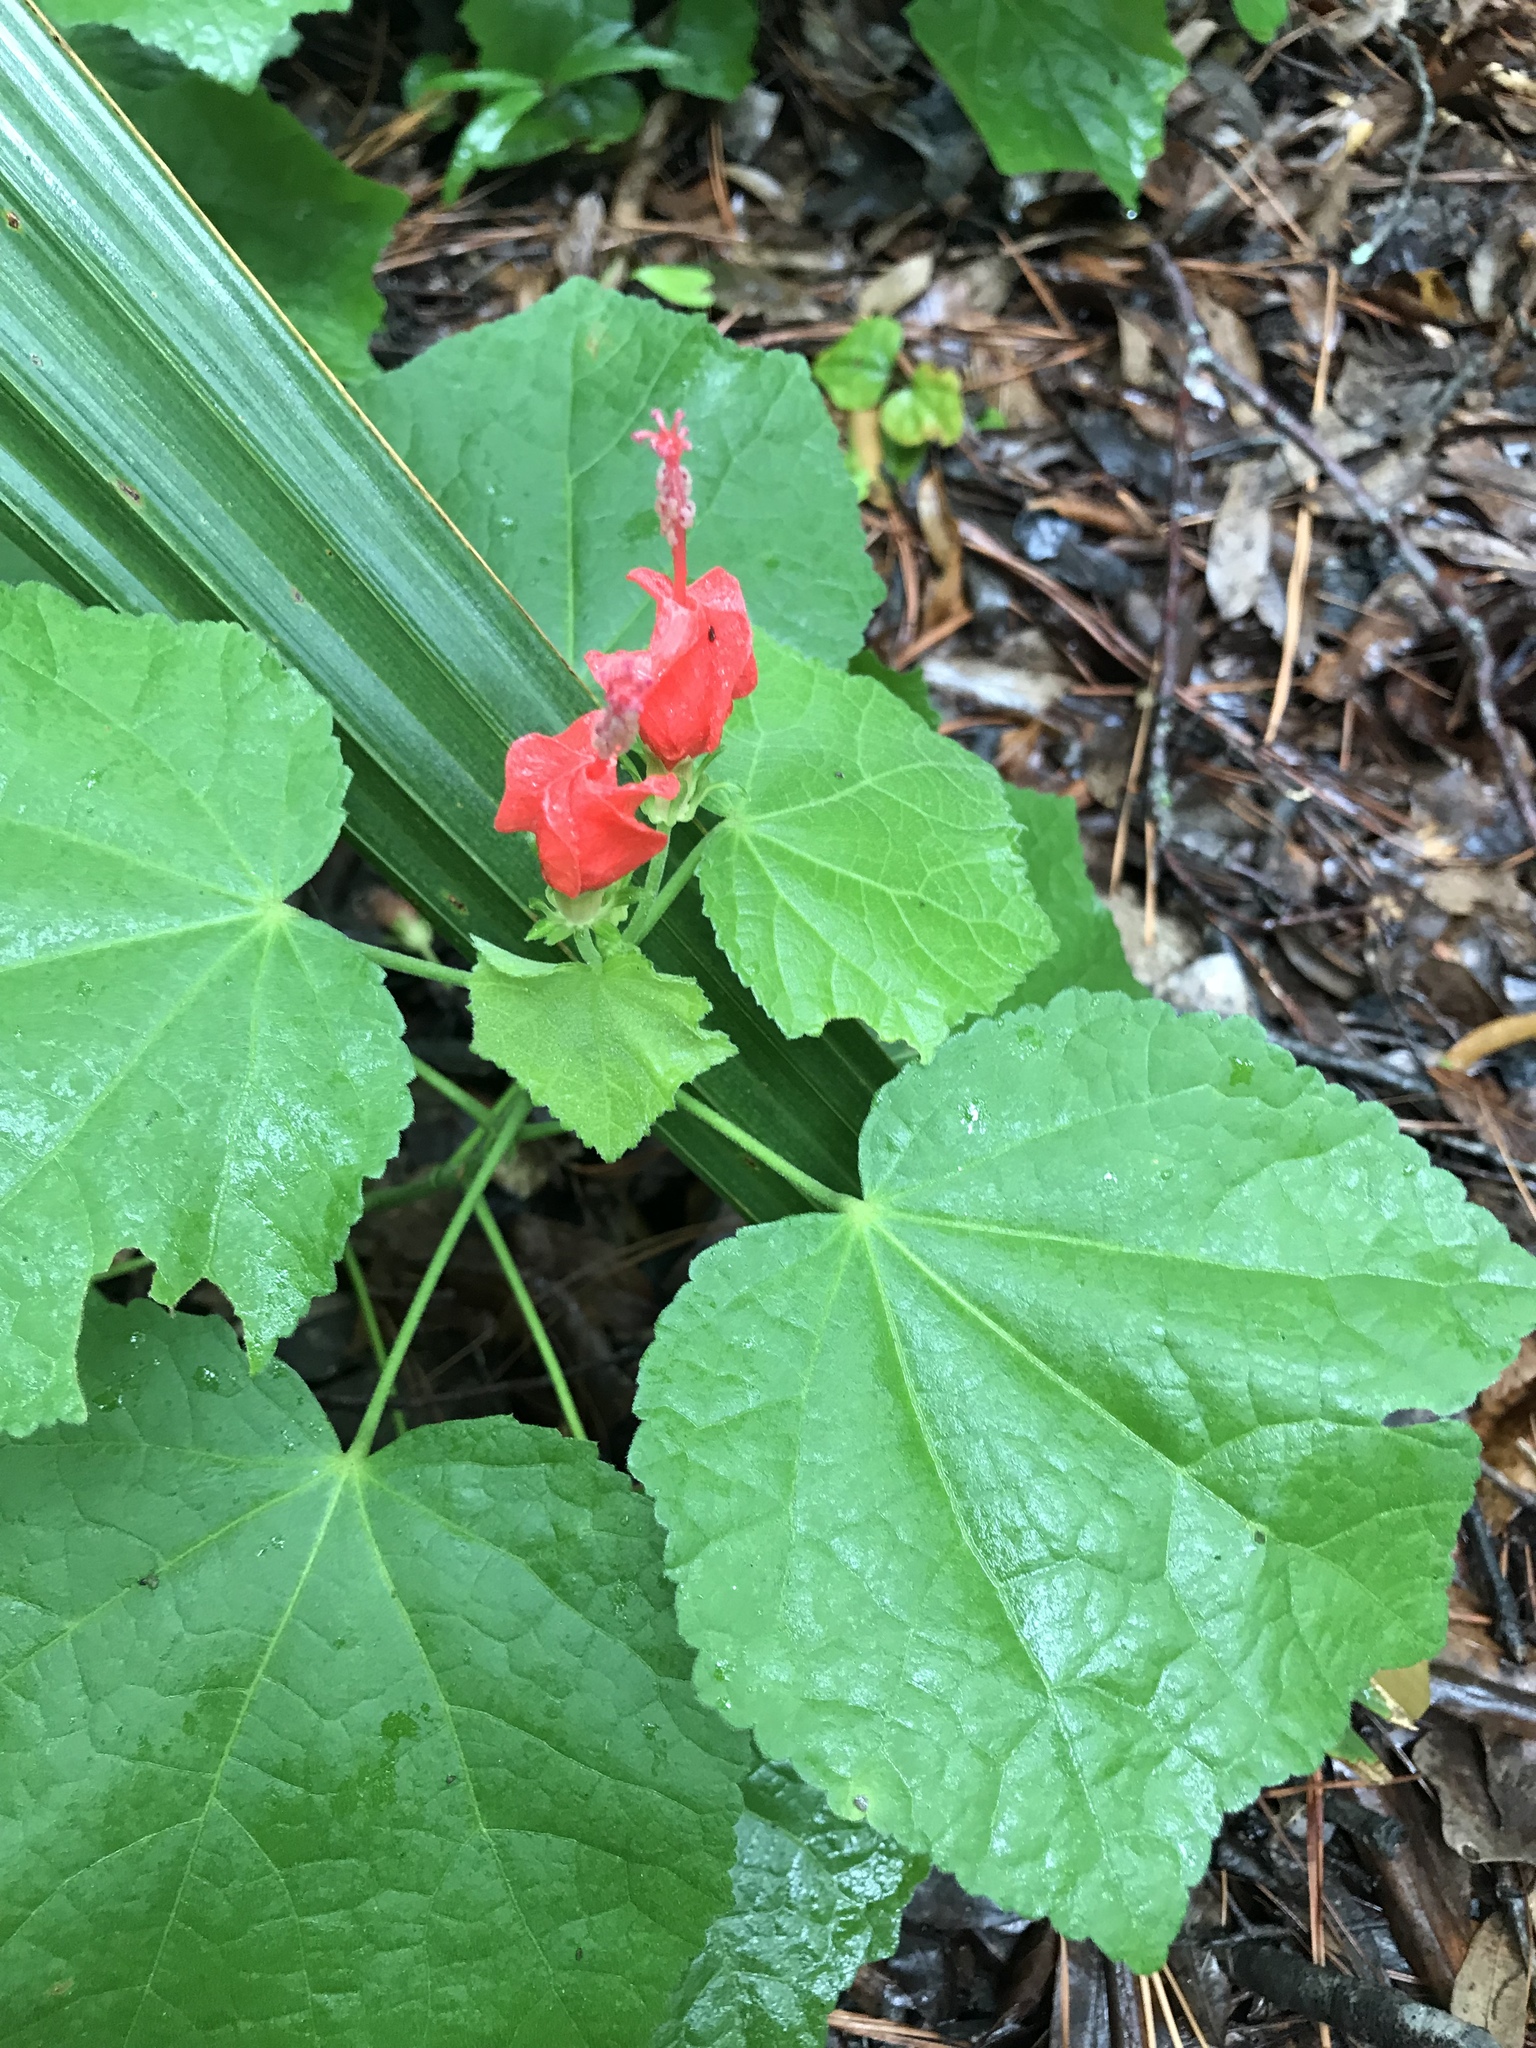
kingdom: Plantae
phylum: Tracheophyta
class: Magnoliopsida
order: Malvales
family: Malvaceae
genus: Malvaviscus
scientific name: Malvaviscus arboreus
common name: Wax mallow
